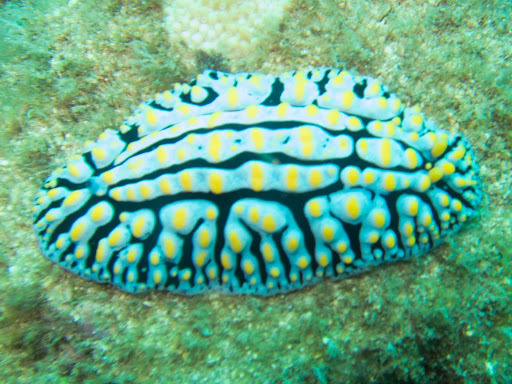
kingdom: Animalia
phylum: Mollusca
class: Gastropoda
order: Nudibranchia
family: Phyllidiidae
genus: Phyllidia
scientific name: Phyllidia varicosa
